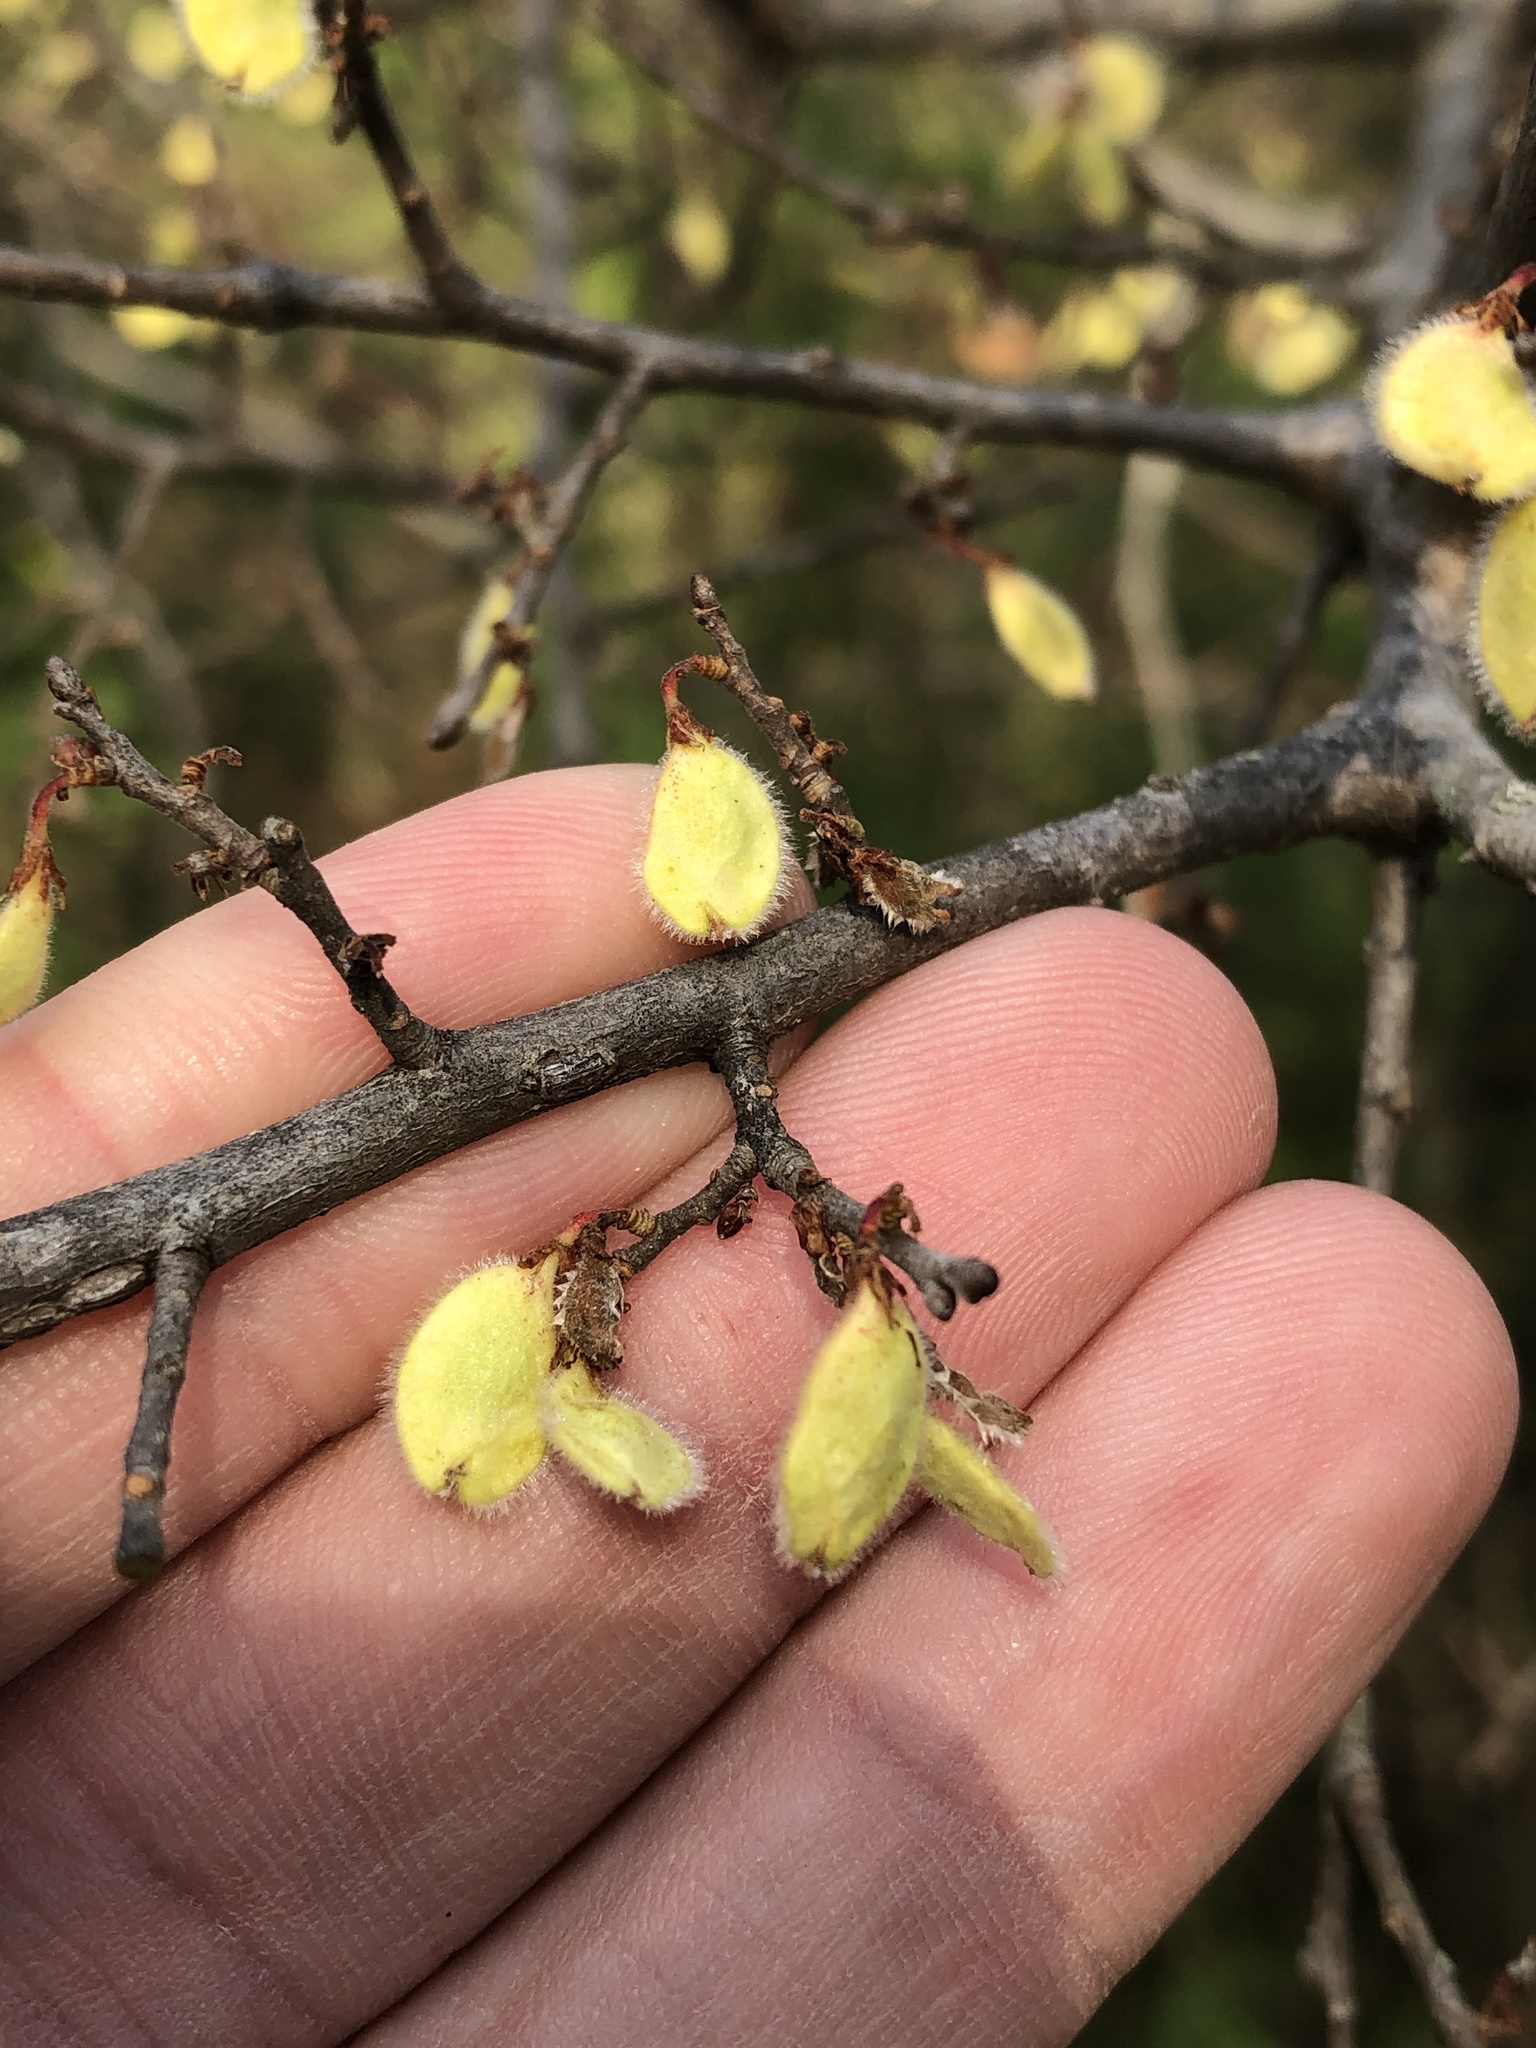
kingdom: Plantae
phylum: Tracheophyta
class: Magnoliopsida
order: Rosales
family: Ulmaceae
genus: Ulmus
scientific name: Ulmus crassifolia
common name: Basket elm
